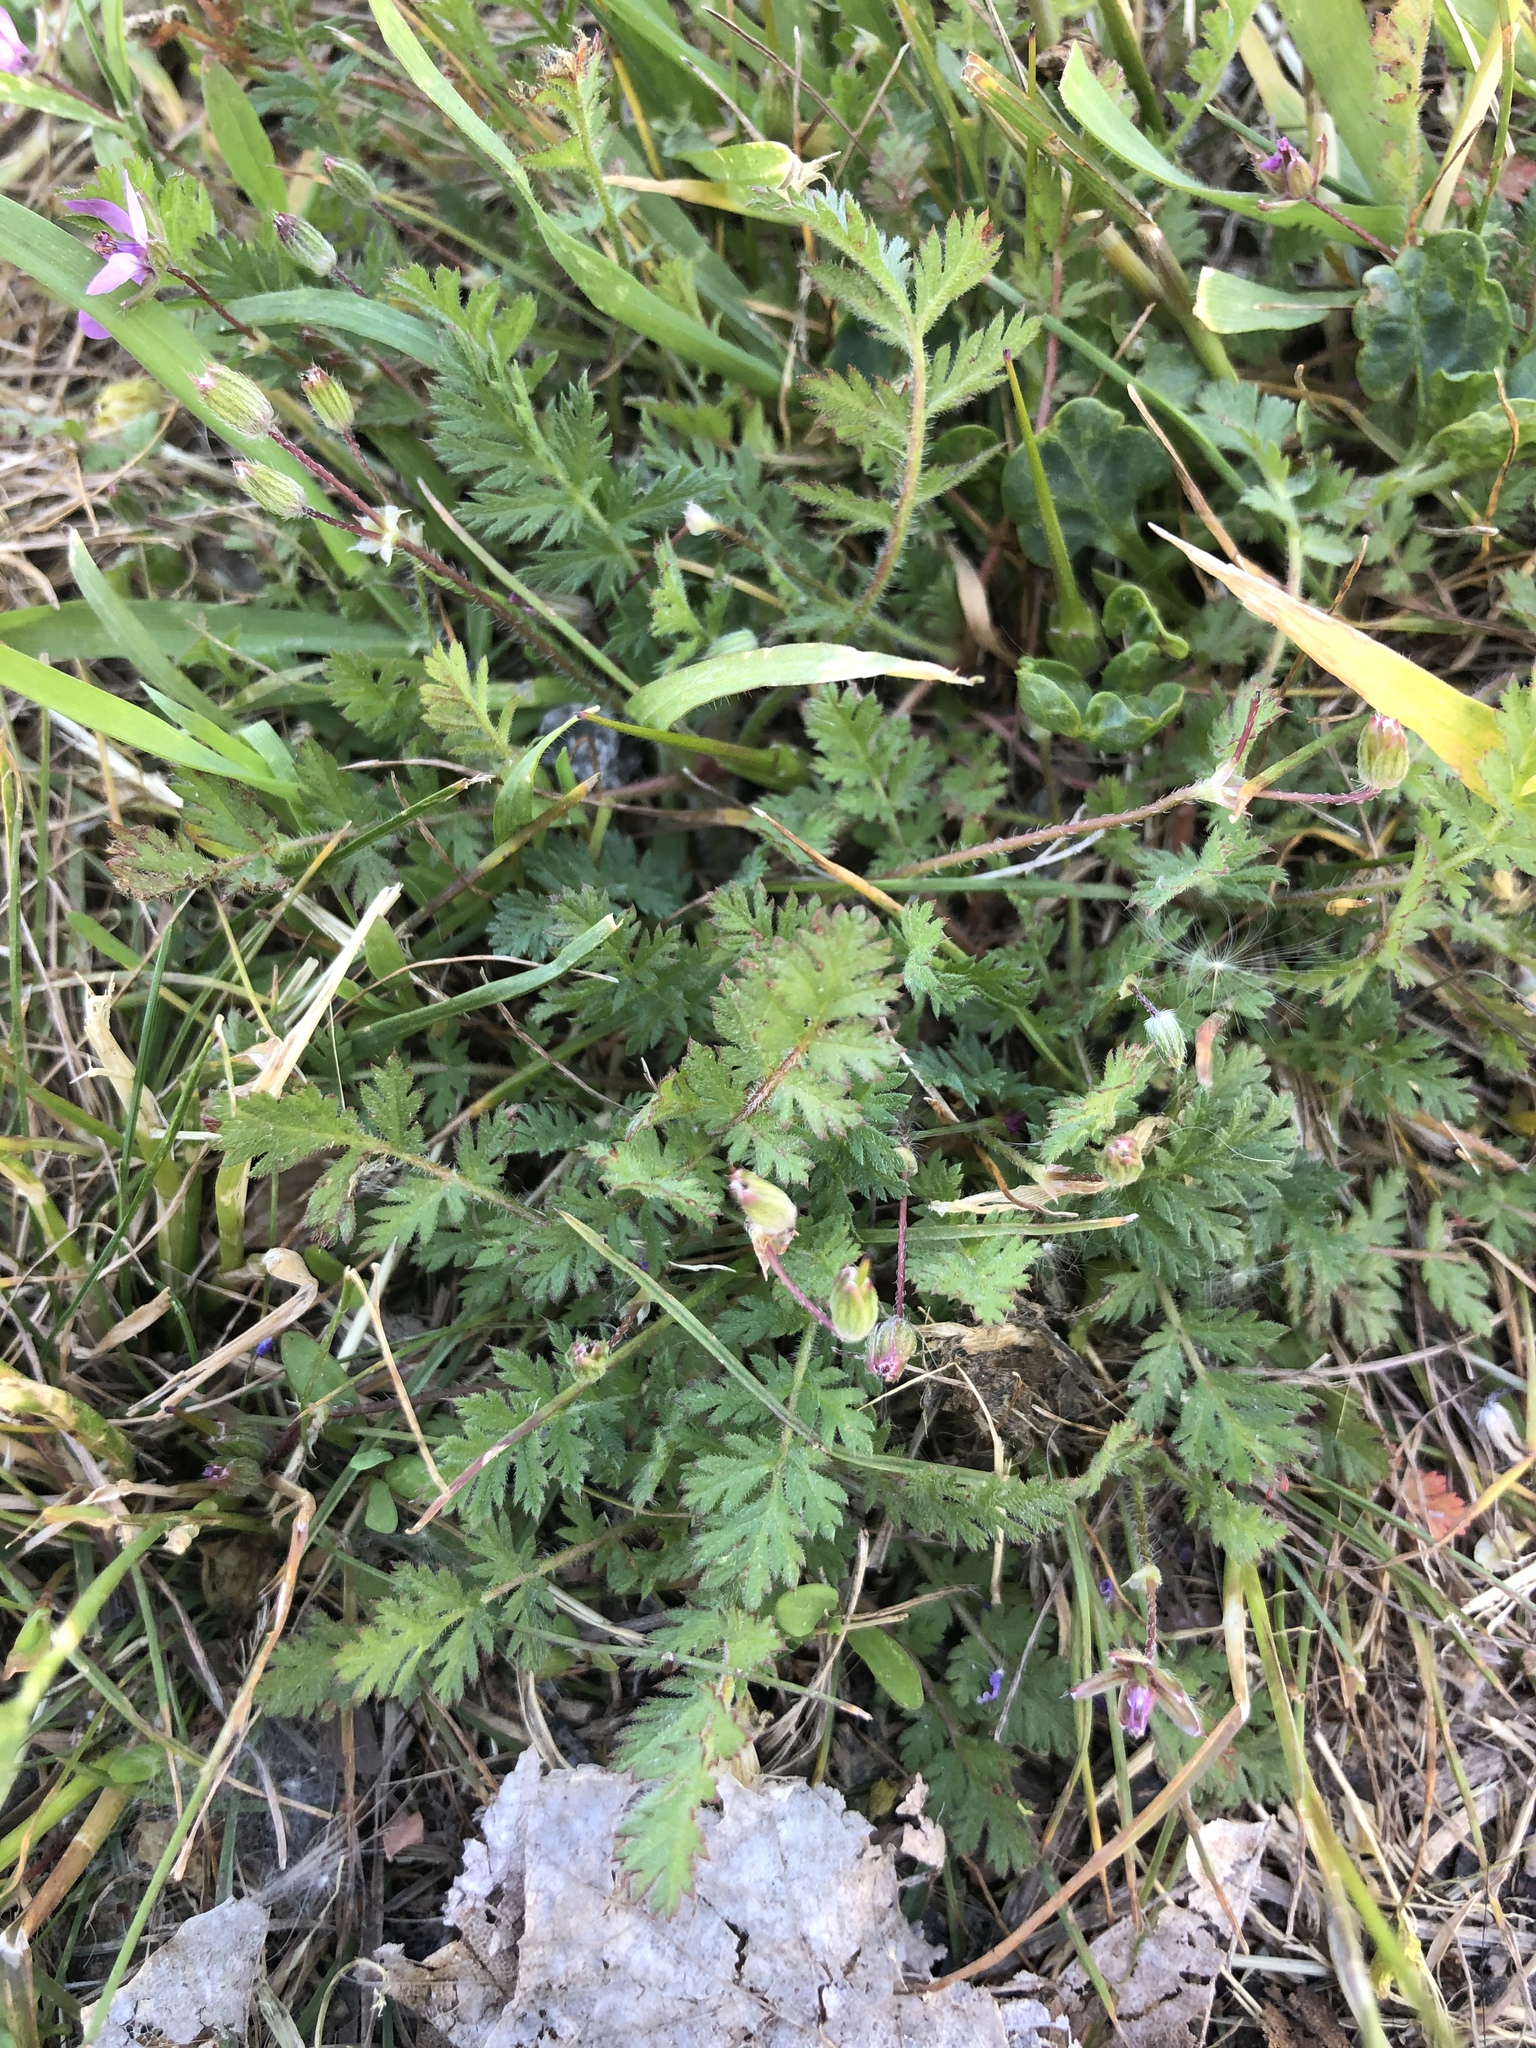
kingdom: Plantae
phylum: Tracheophyta
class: Magnoliopsida
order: Geraniales
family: Geraniaceae
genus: Erodium
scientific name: Erodium cicutarium
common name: Common stork's-bill
